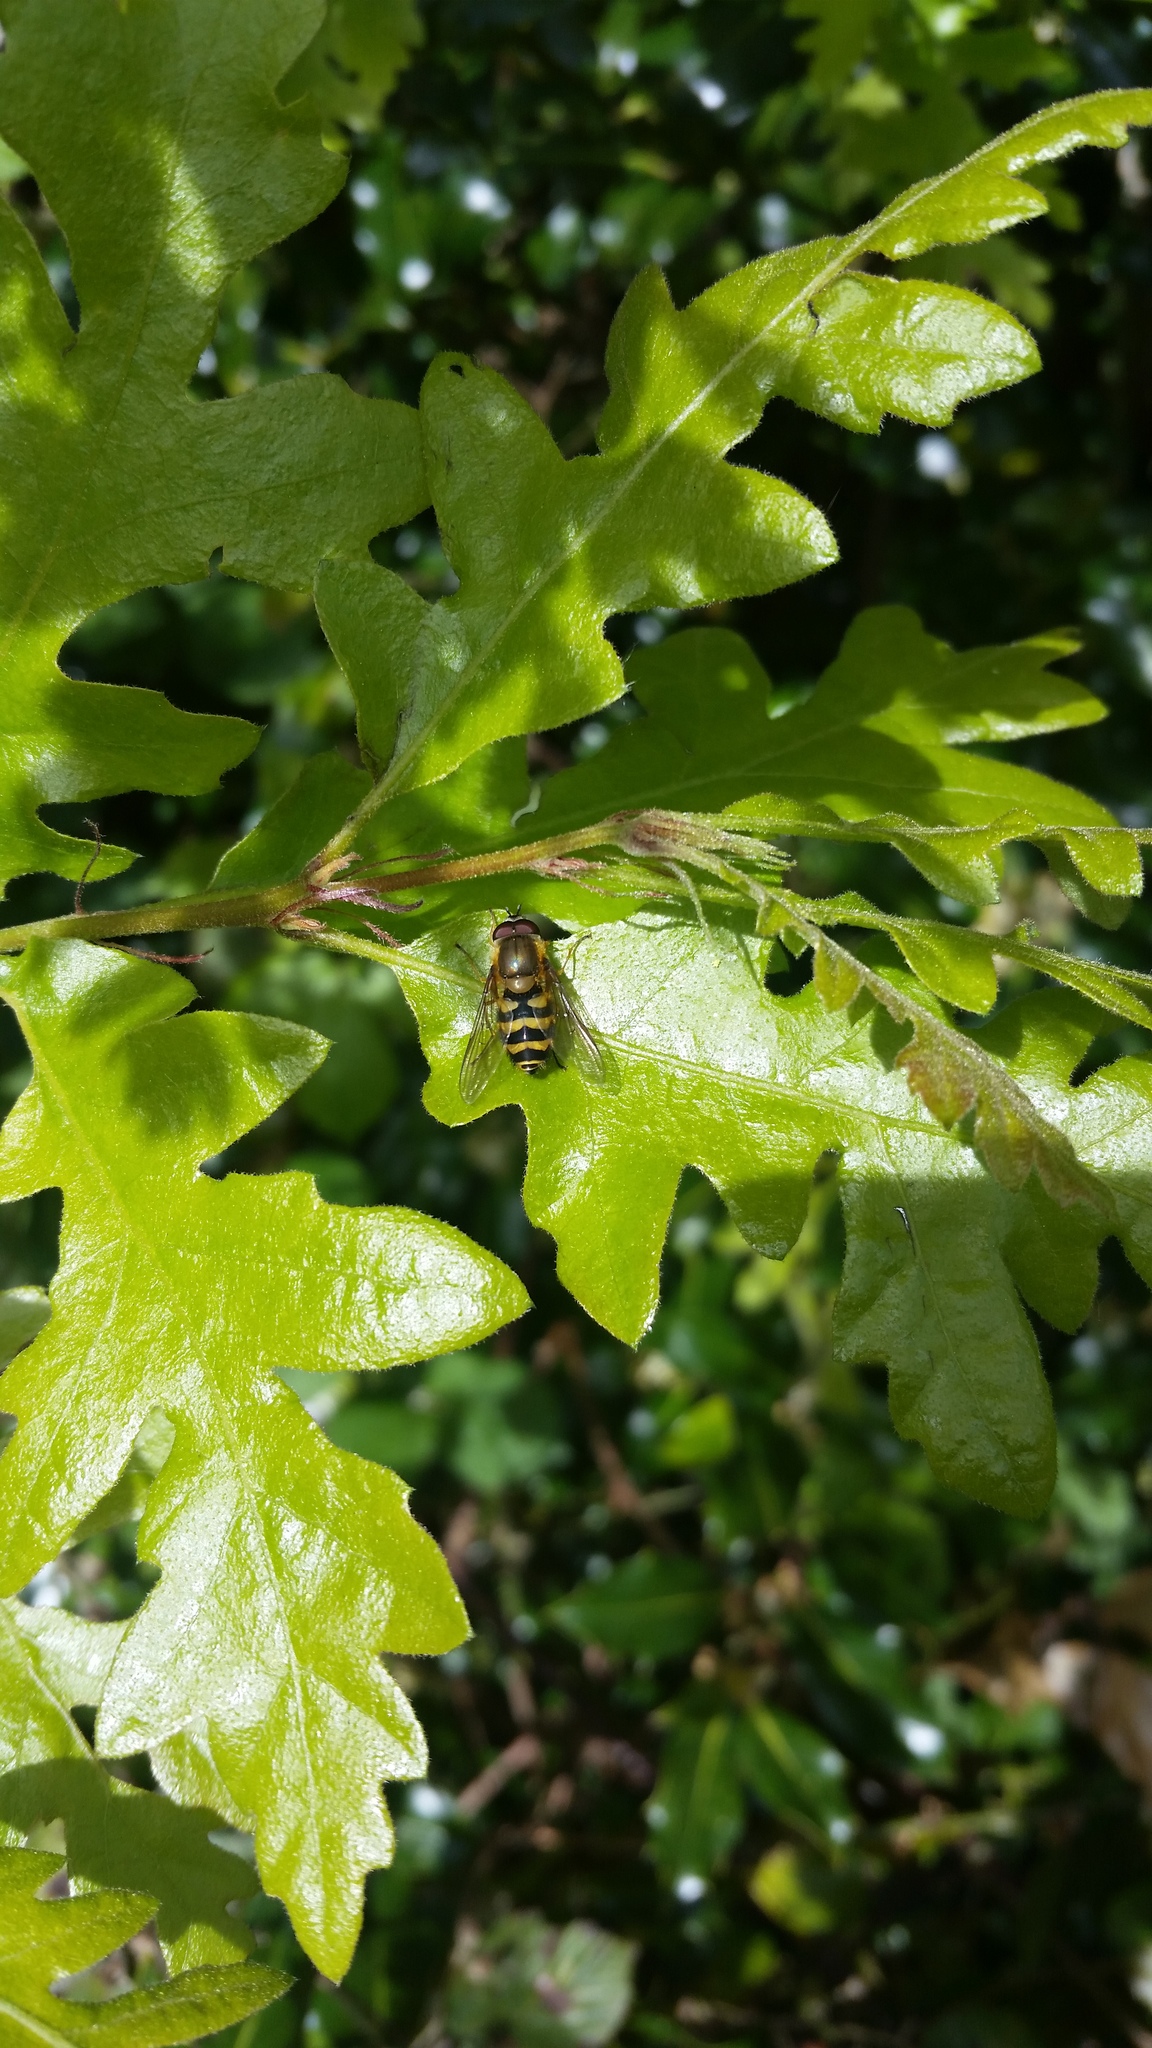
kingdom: Animalia
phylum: Arthropoda
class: Insecta
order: Diptera
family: Syrphidae
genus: Syrphus
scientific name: Syrphus
